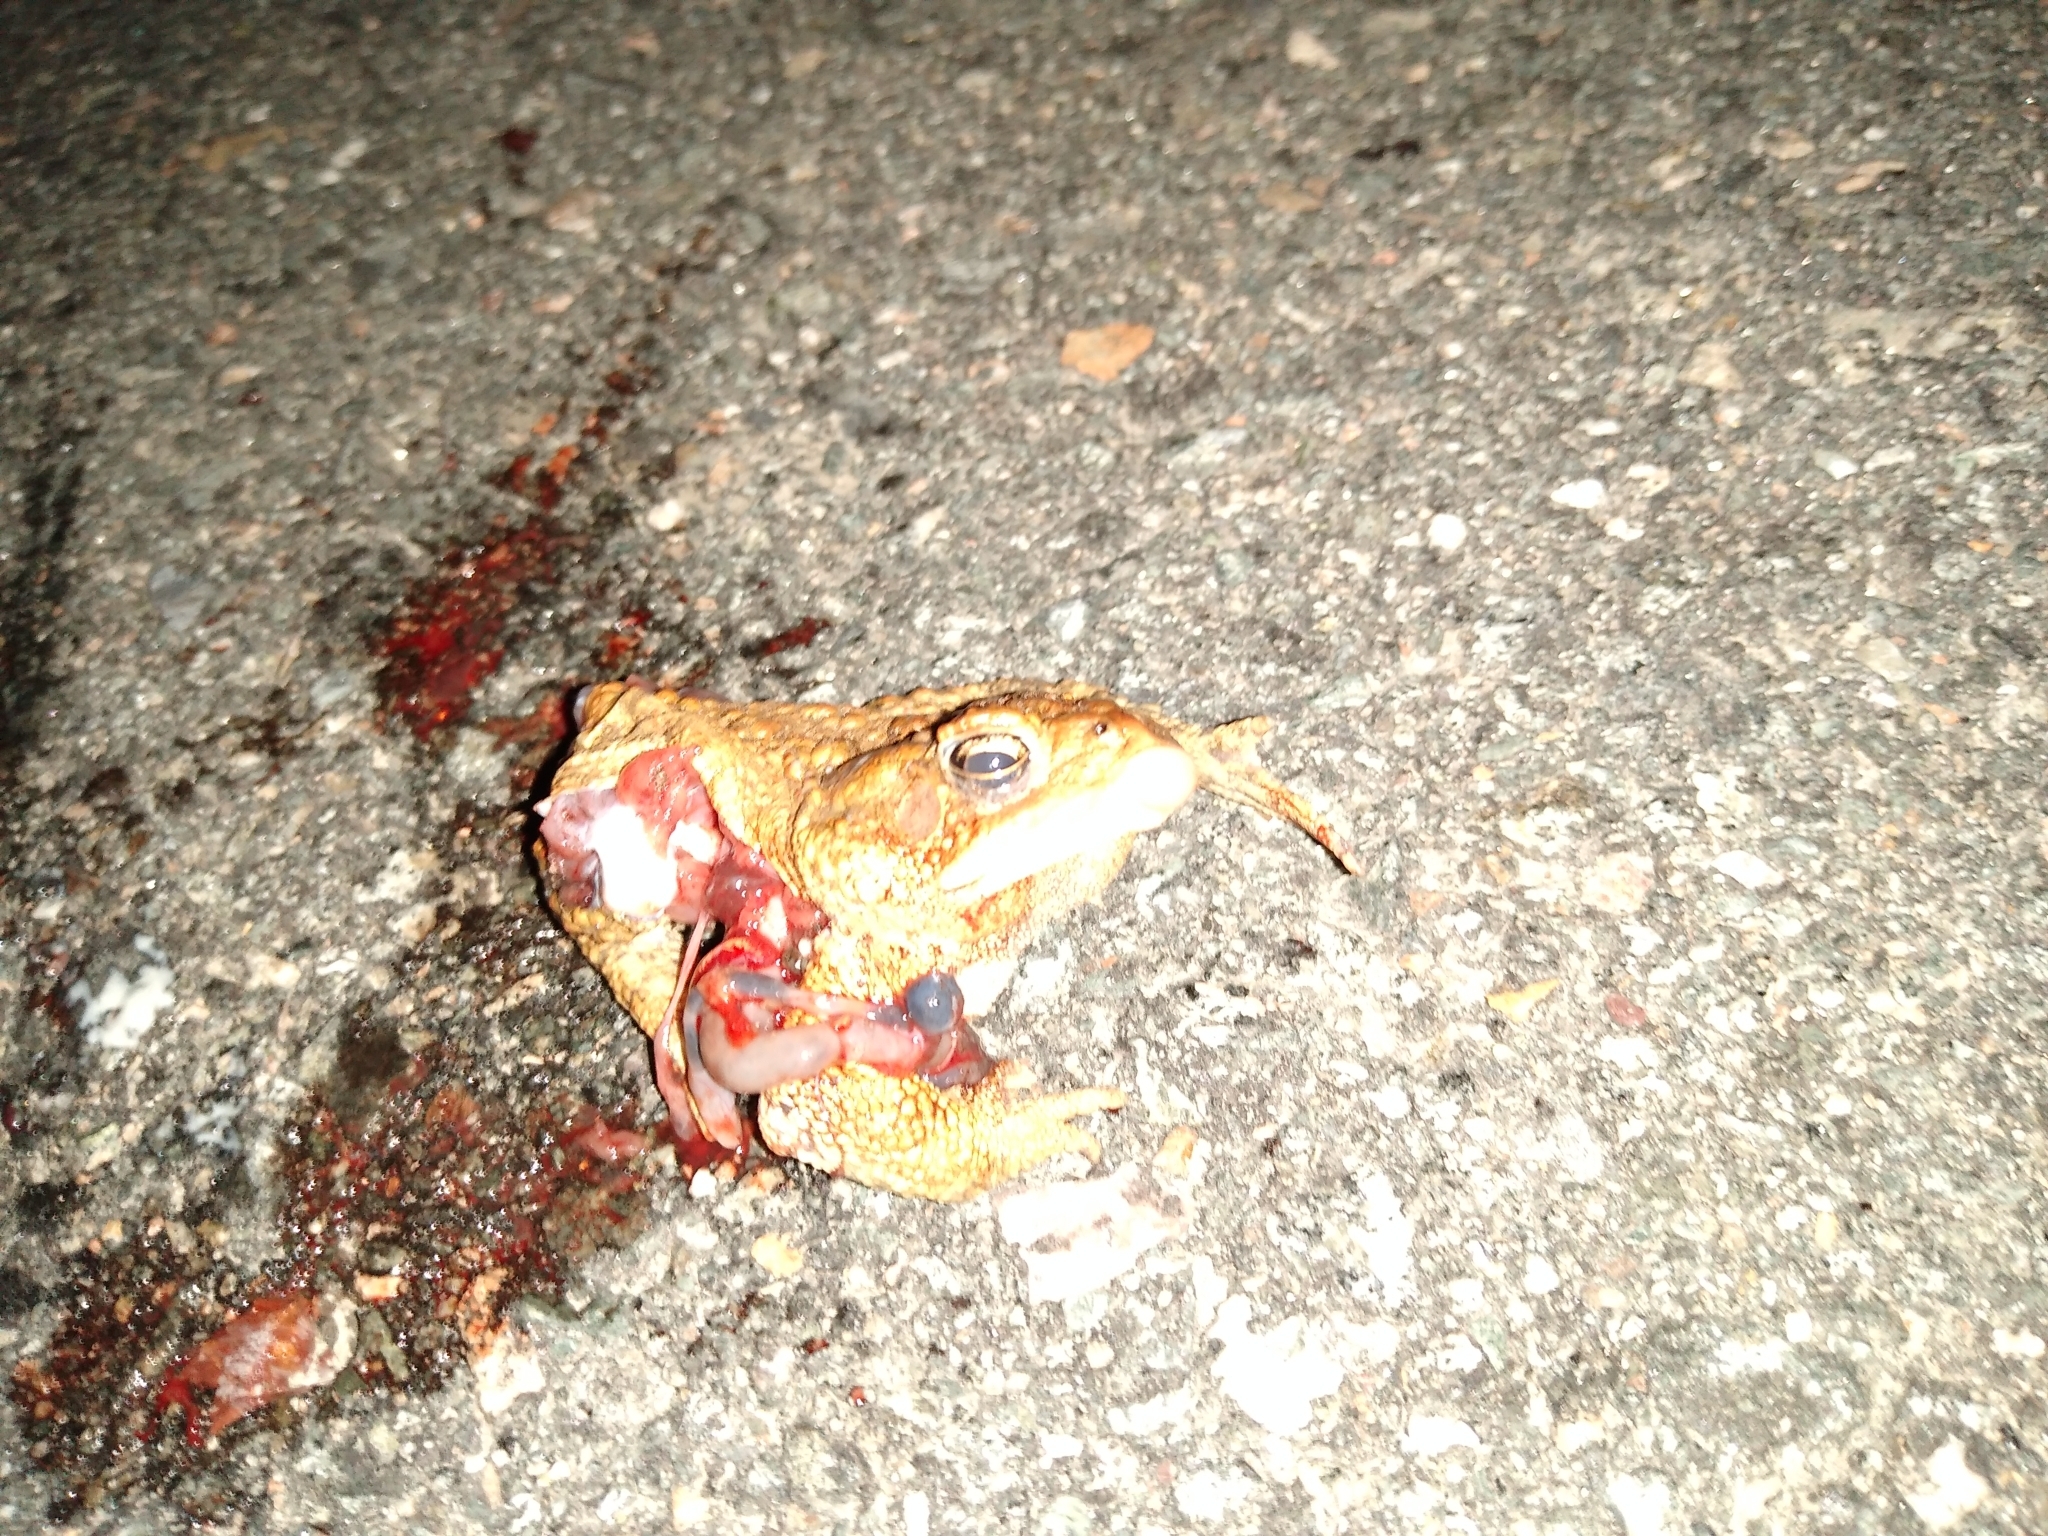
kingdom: Animalia
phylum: Chordata
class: Amphibia
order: Anura
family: Bufonidae
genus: Anaxyrus
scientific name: Anaxyrus americanus
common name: American toad
